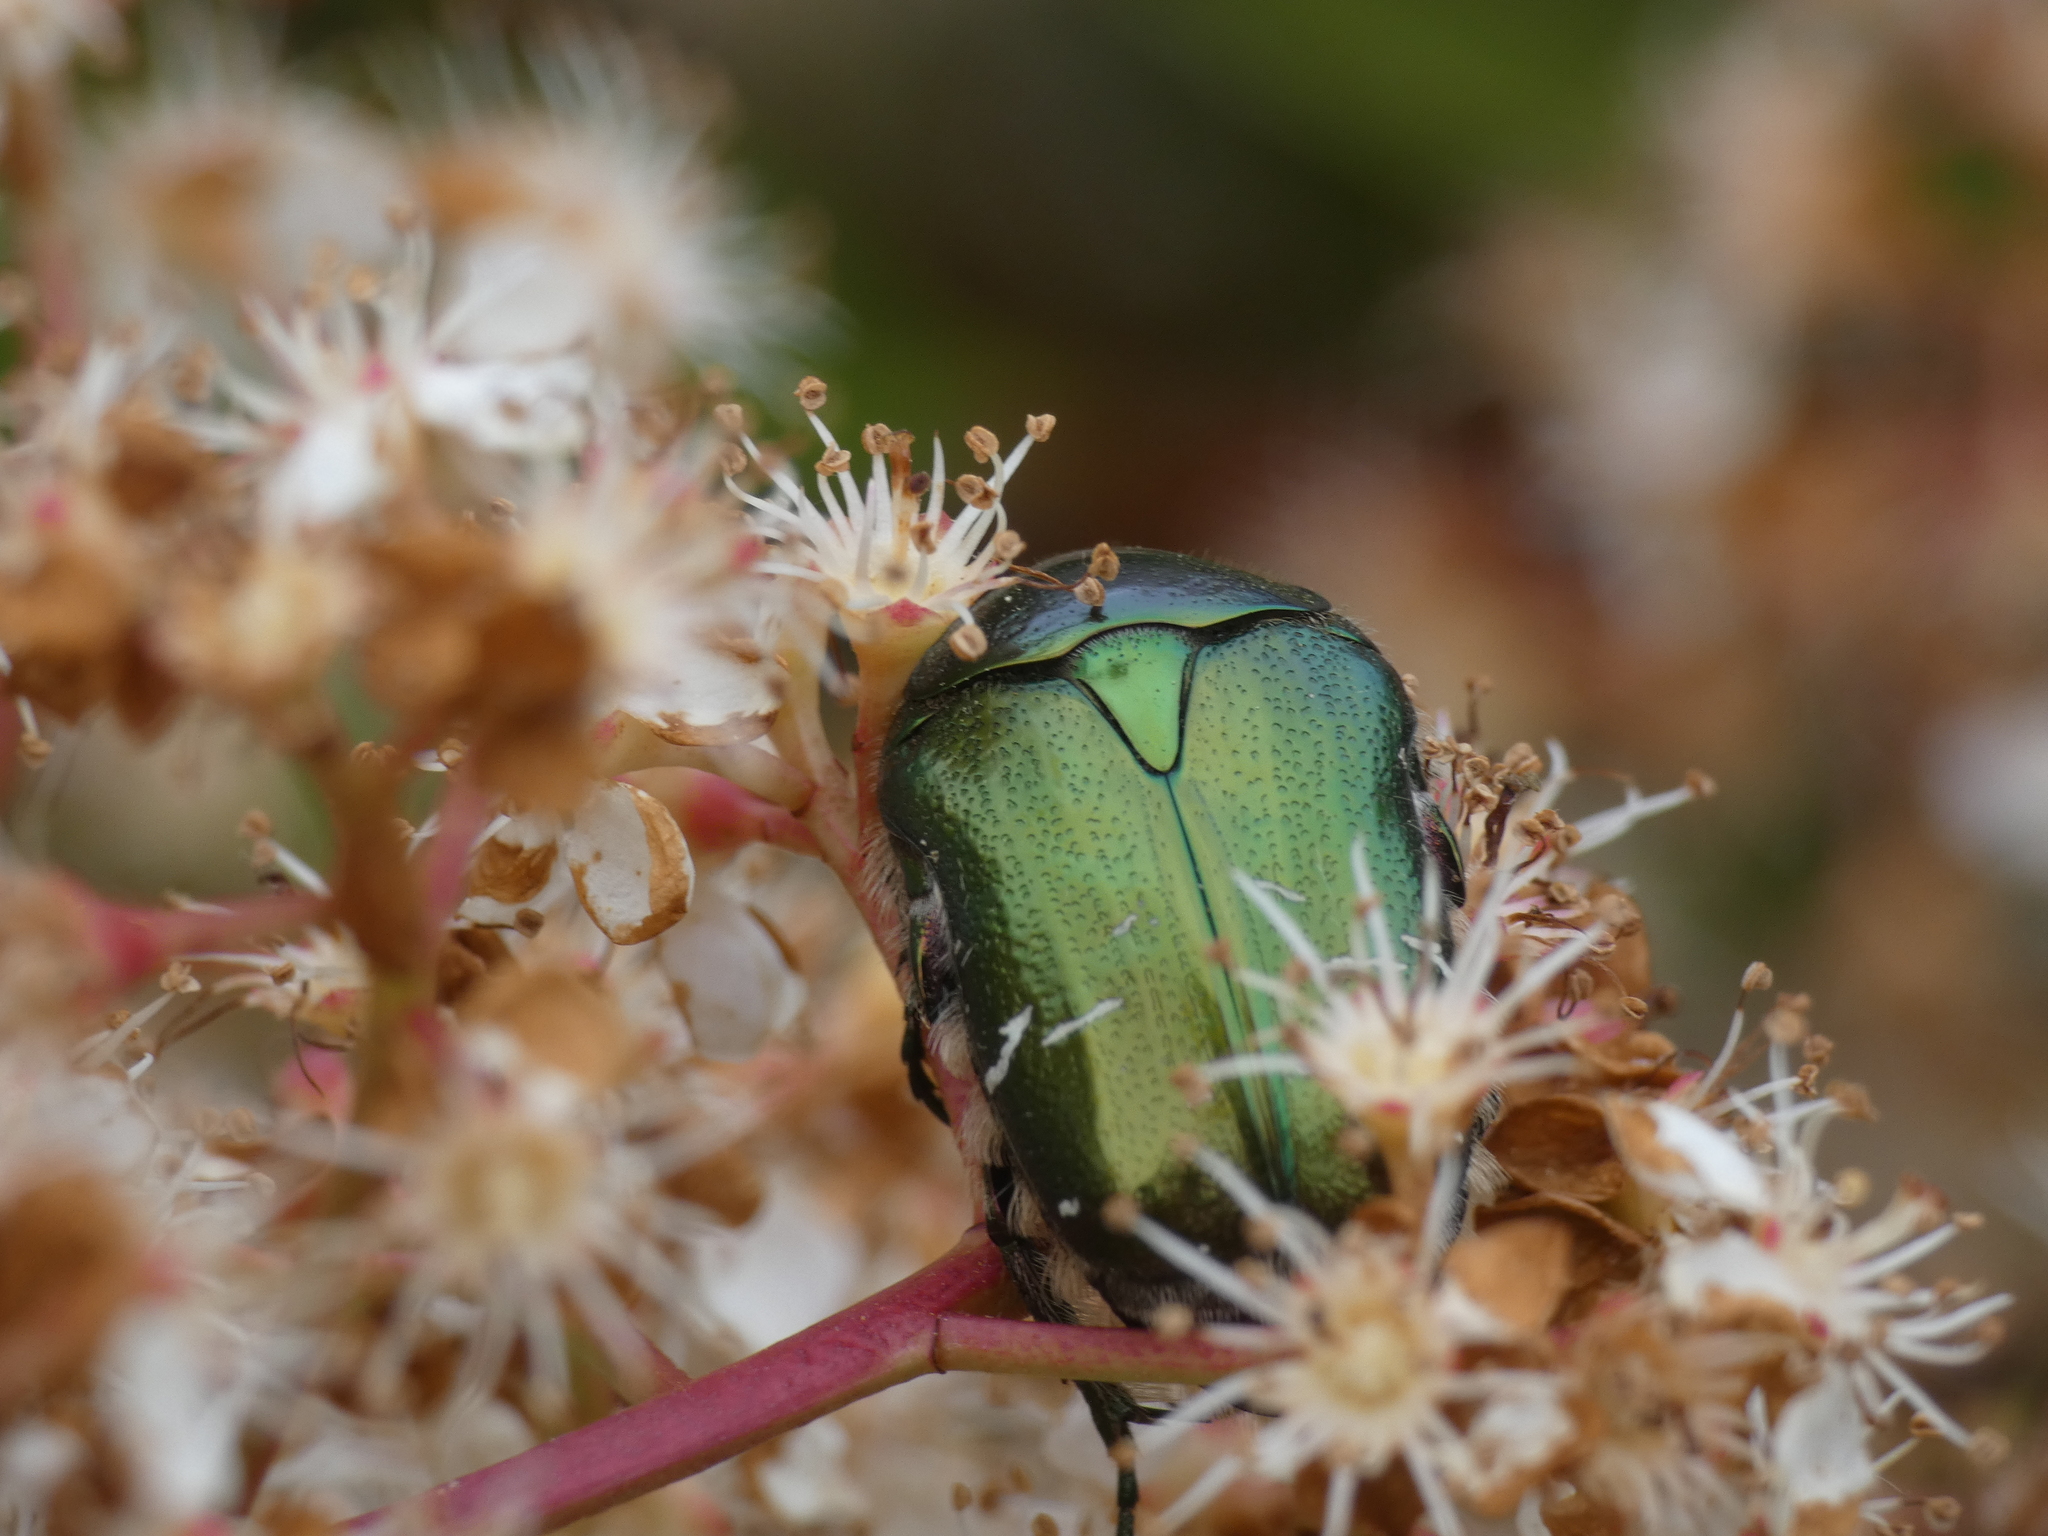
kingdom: Animalia
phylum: Arthropoda
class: Insecta
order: Coleoptera
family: Scarabaeidae
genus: Cetonia
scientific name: Cetonia aurata
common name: Rose chafer
